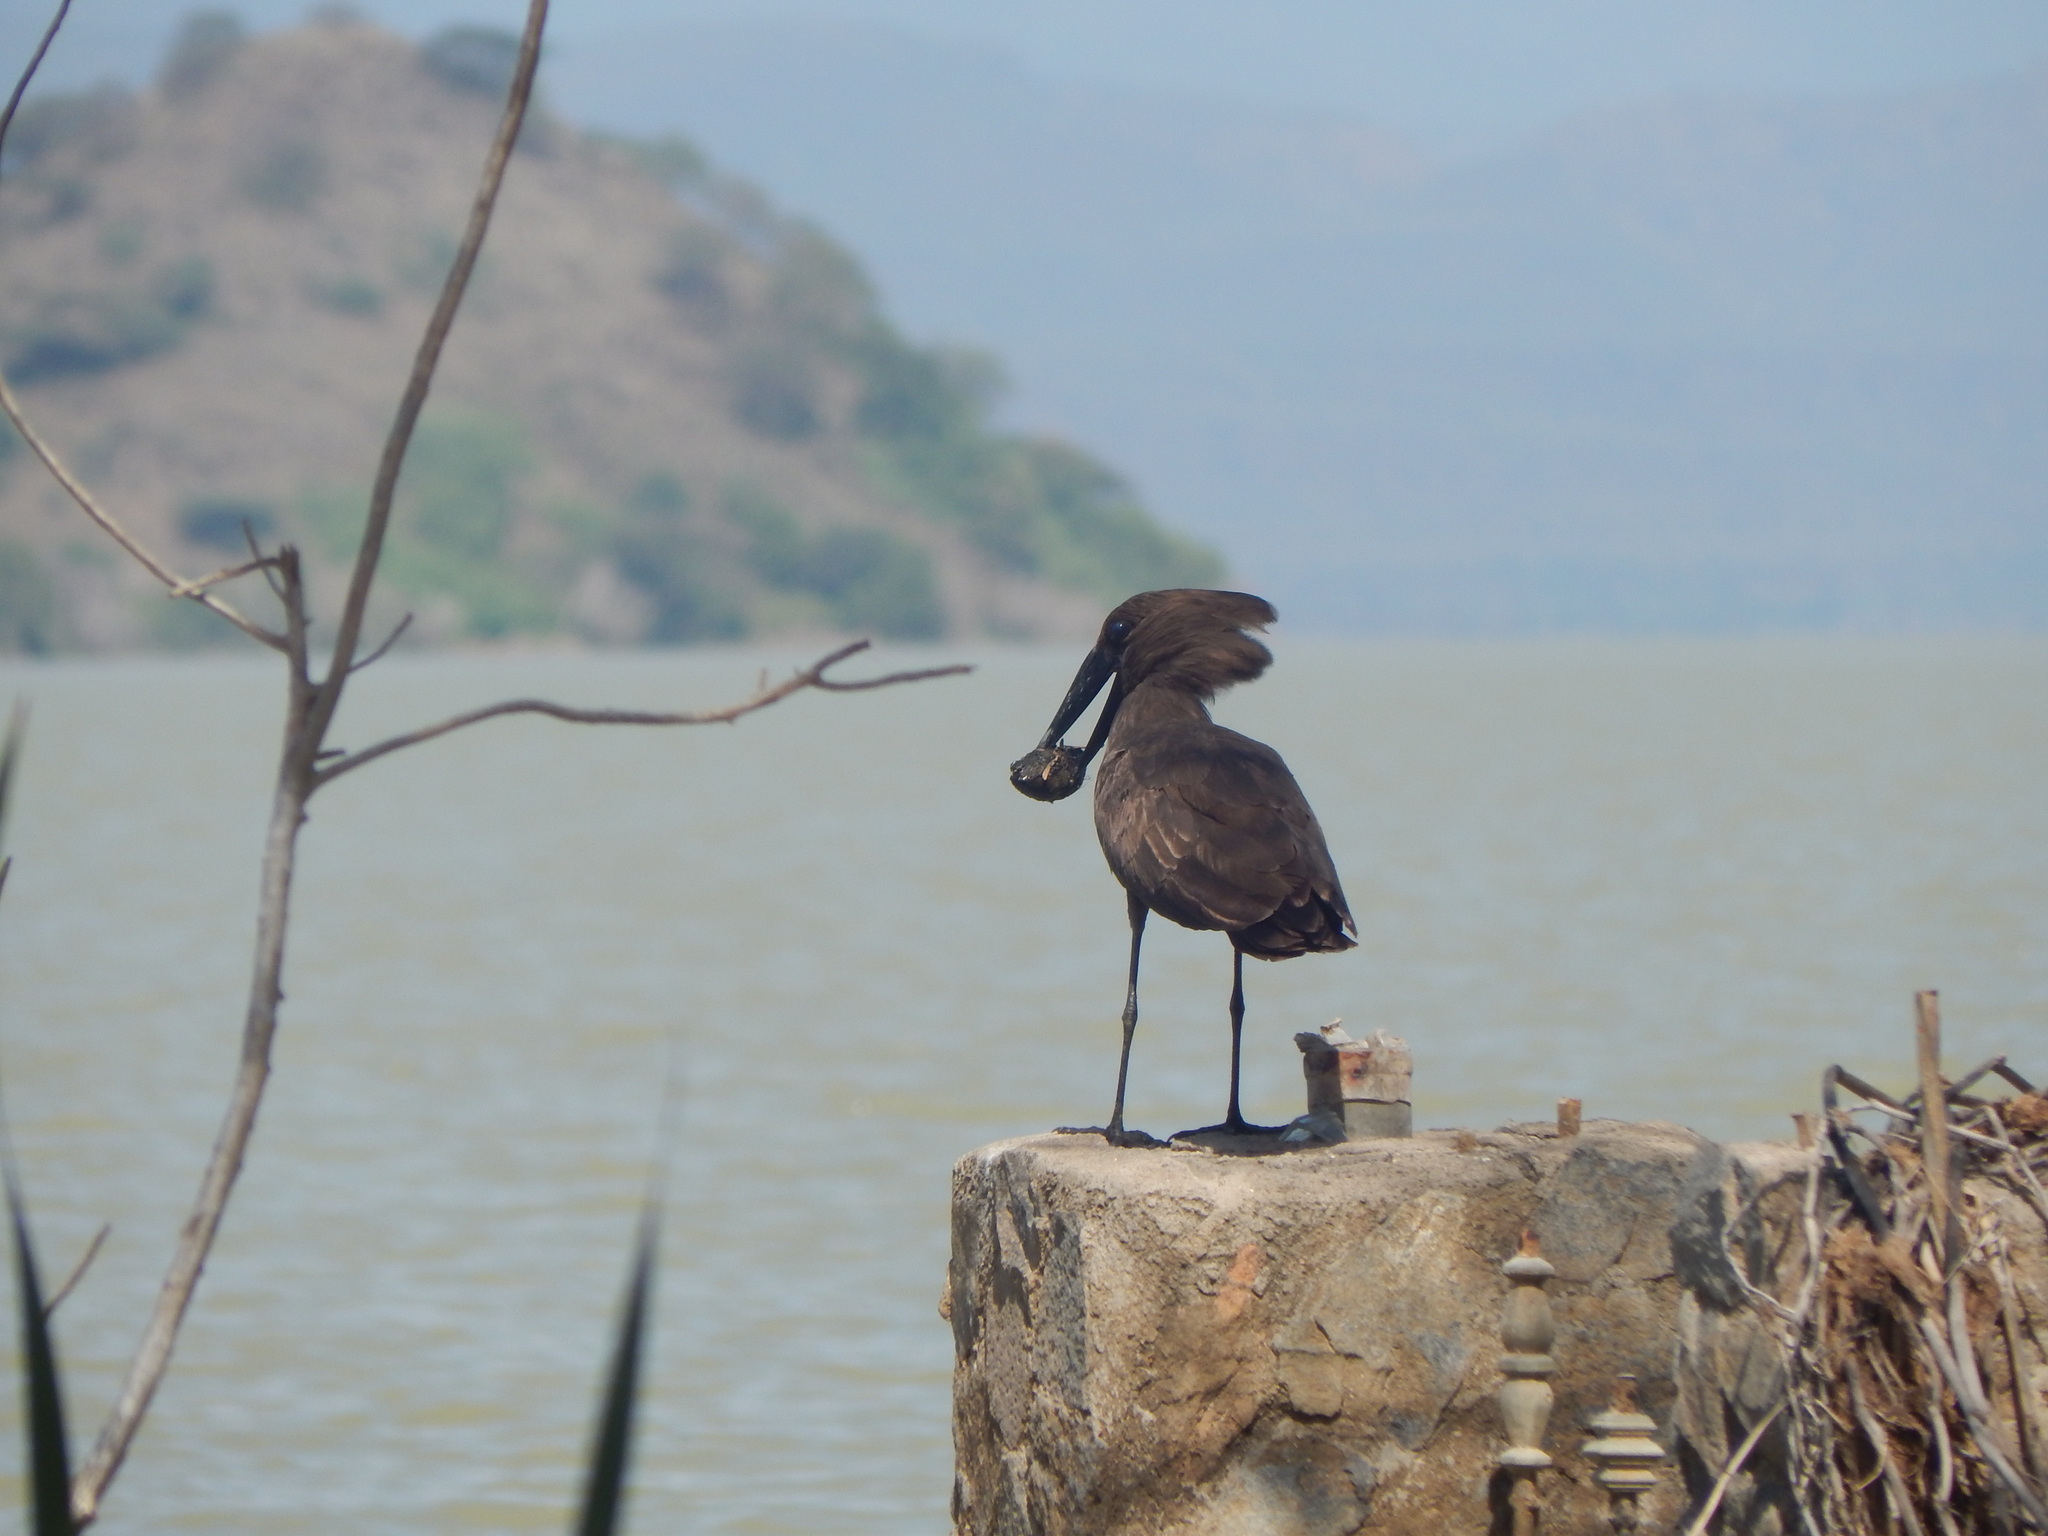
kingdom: Animalia
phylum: Chordata
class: Aves
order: Pelecaniformes
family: Scopidae
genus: Scopus
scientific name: Scopus umbretta
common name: Hamerkop
